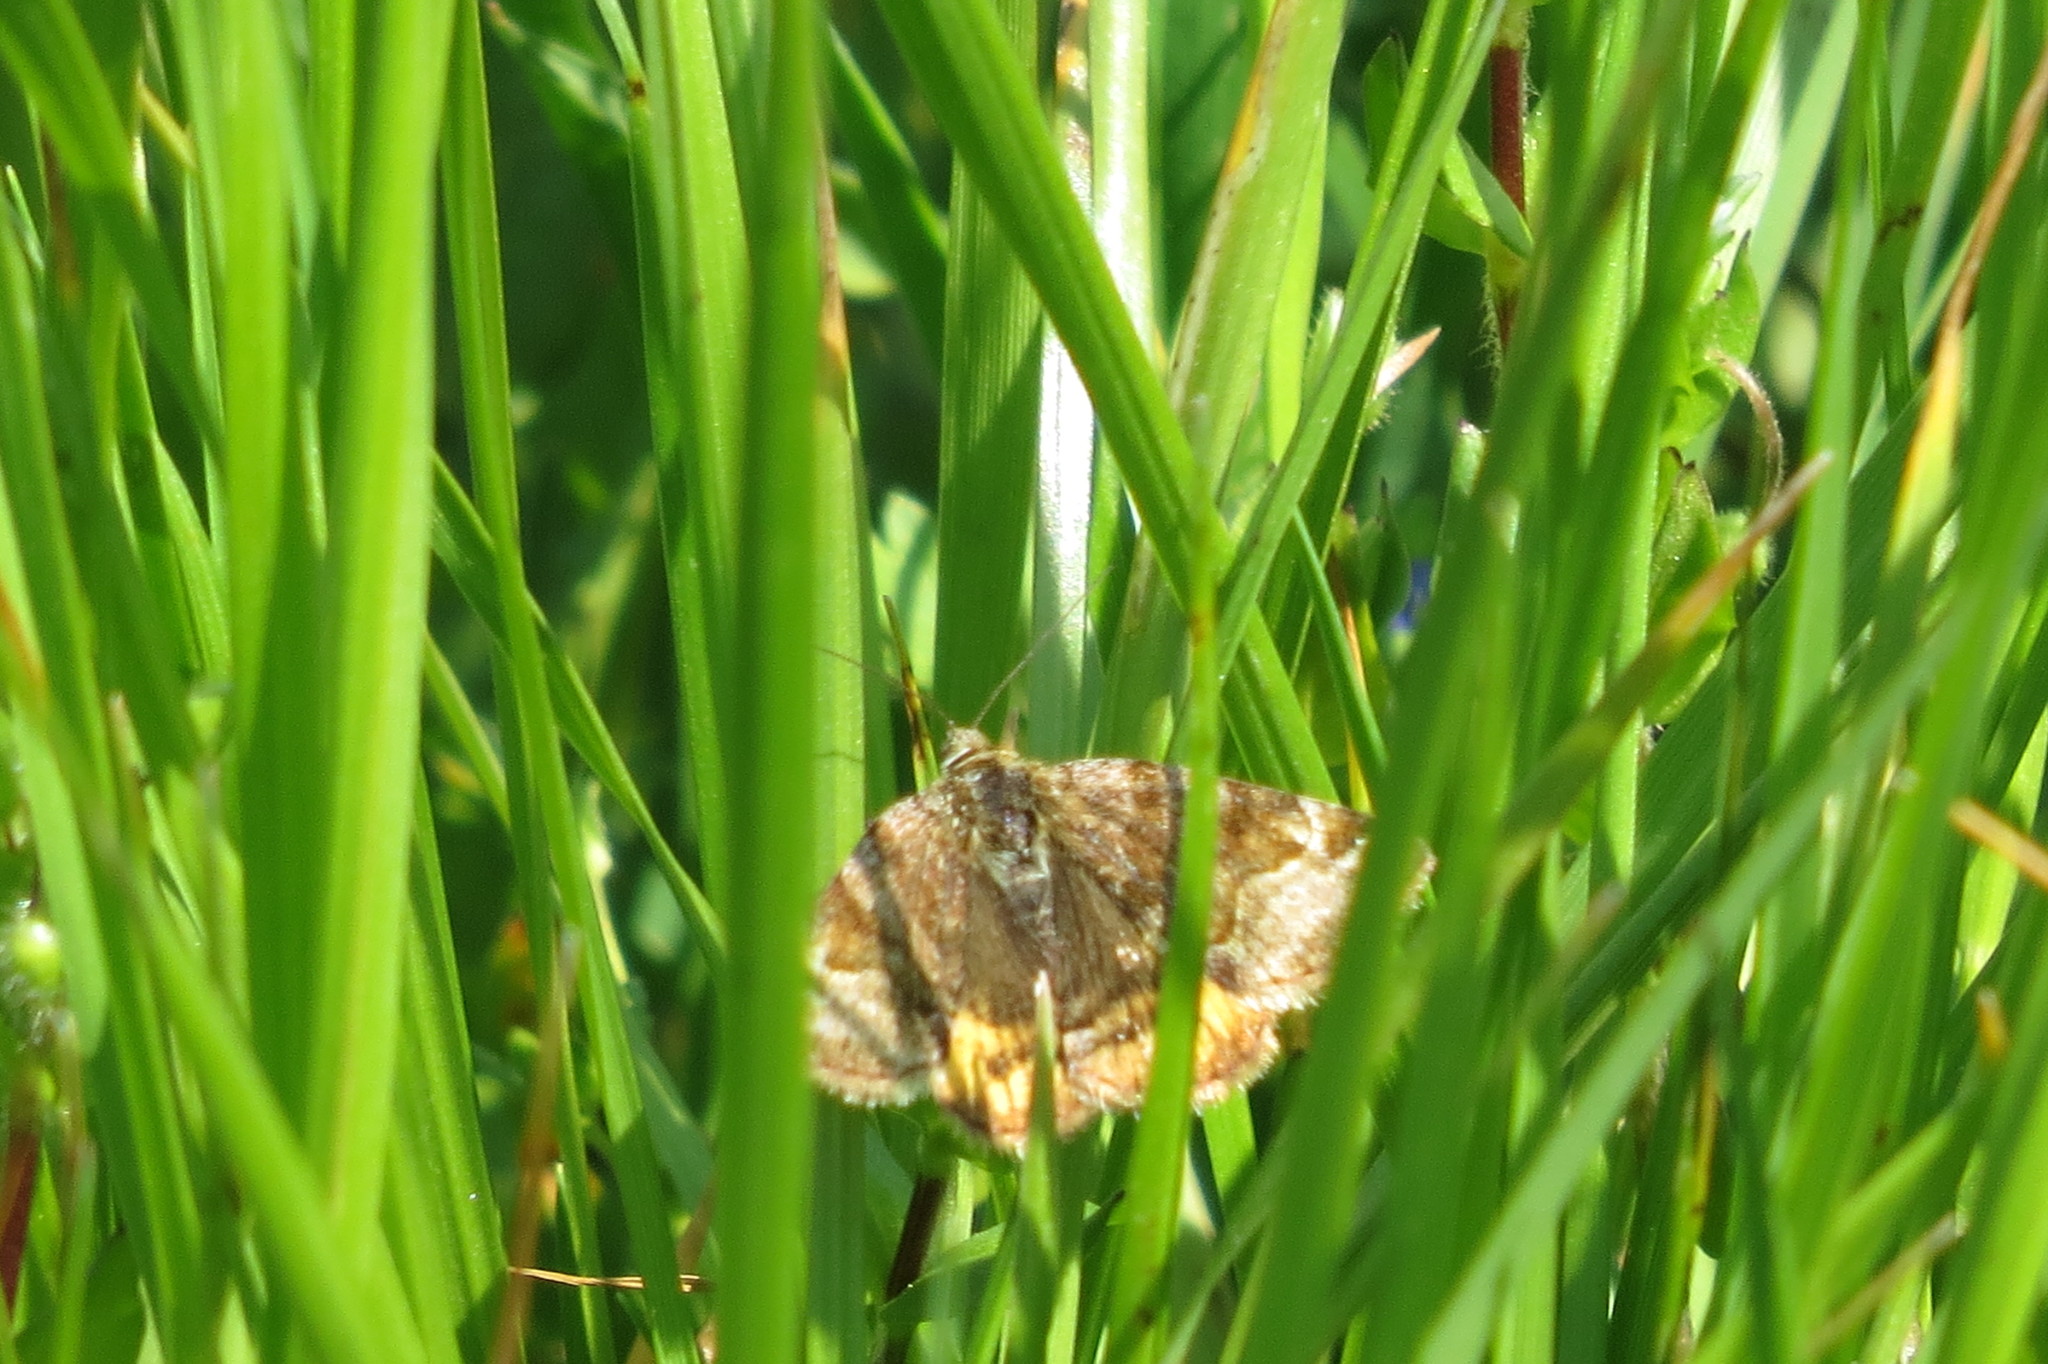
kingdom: Animalia
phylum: Arthropoda
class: Insecta
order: Lepidoptera
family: Erebidae
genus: Euclidia
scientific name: Euclidia glyphica
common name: Burnet companion
